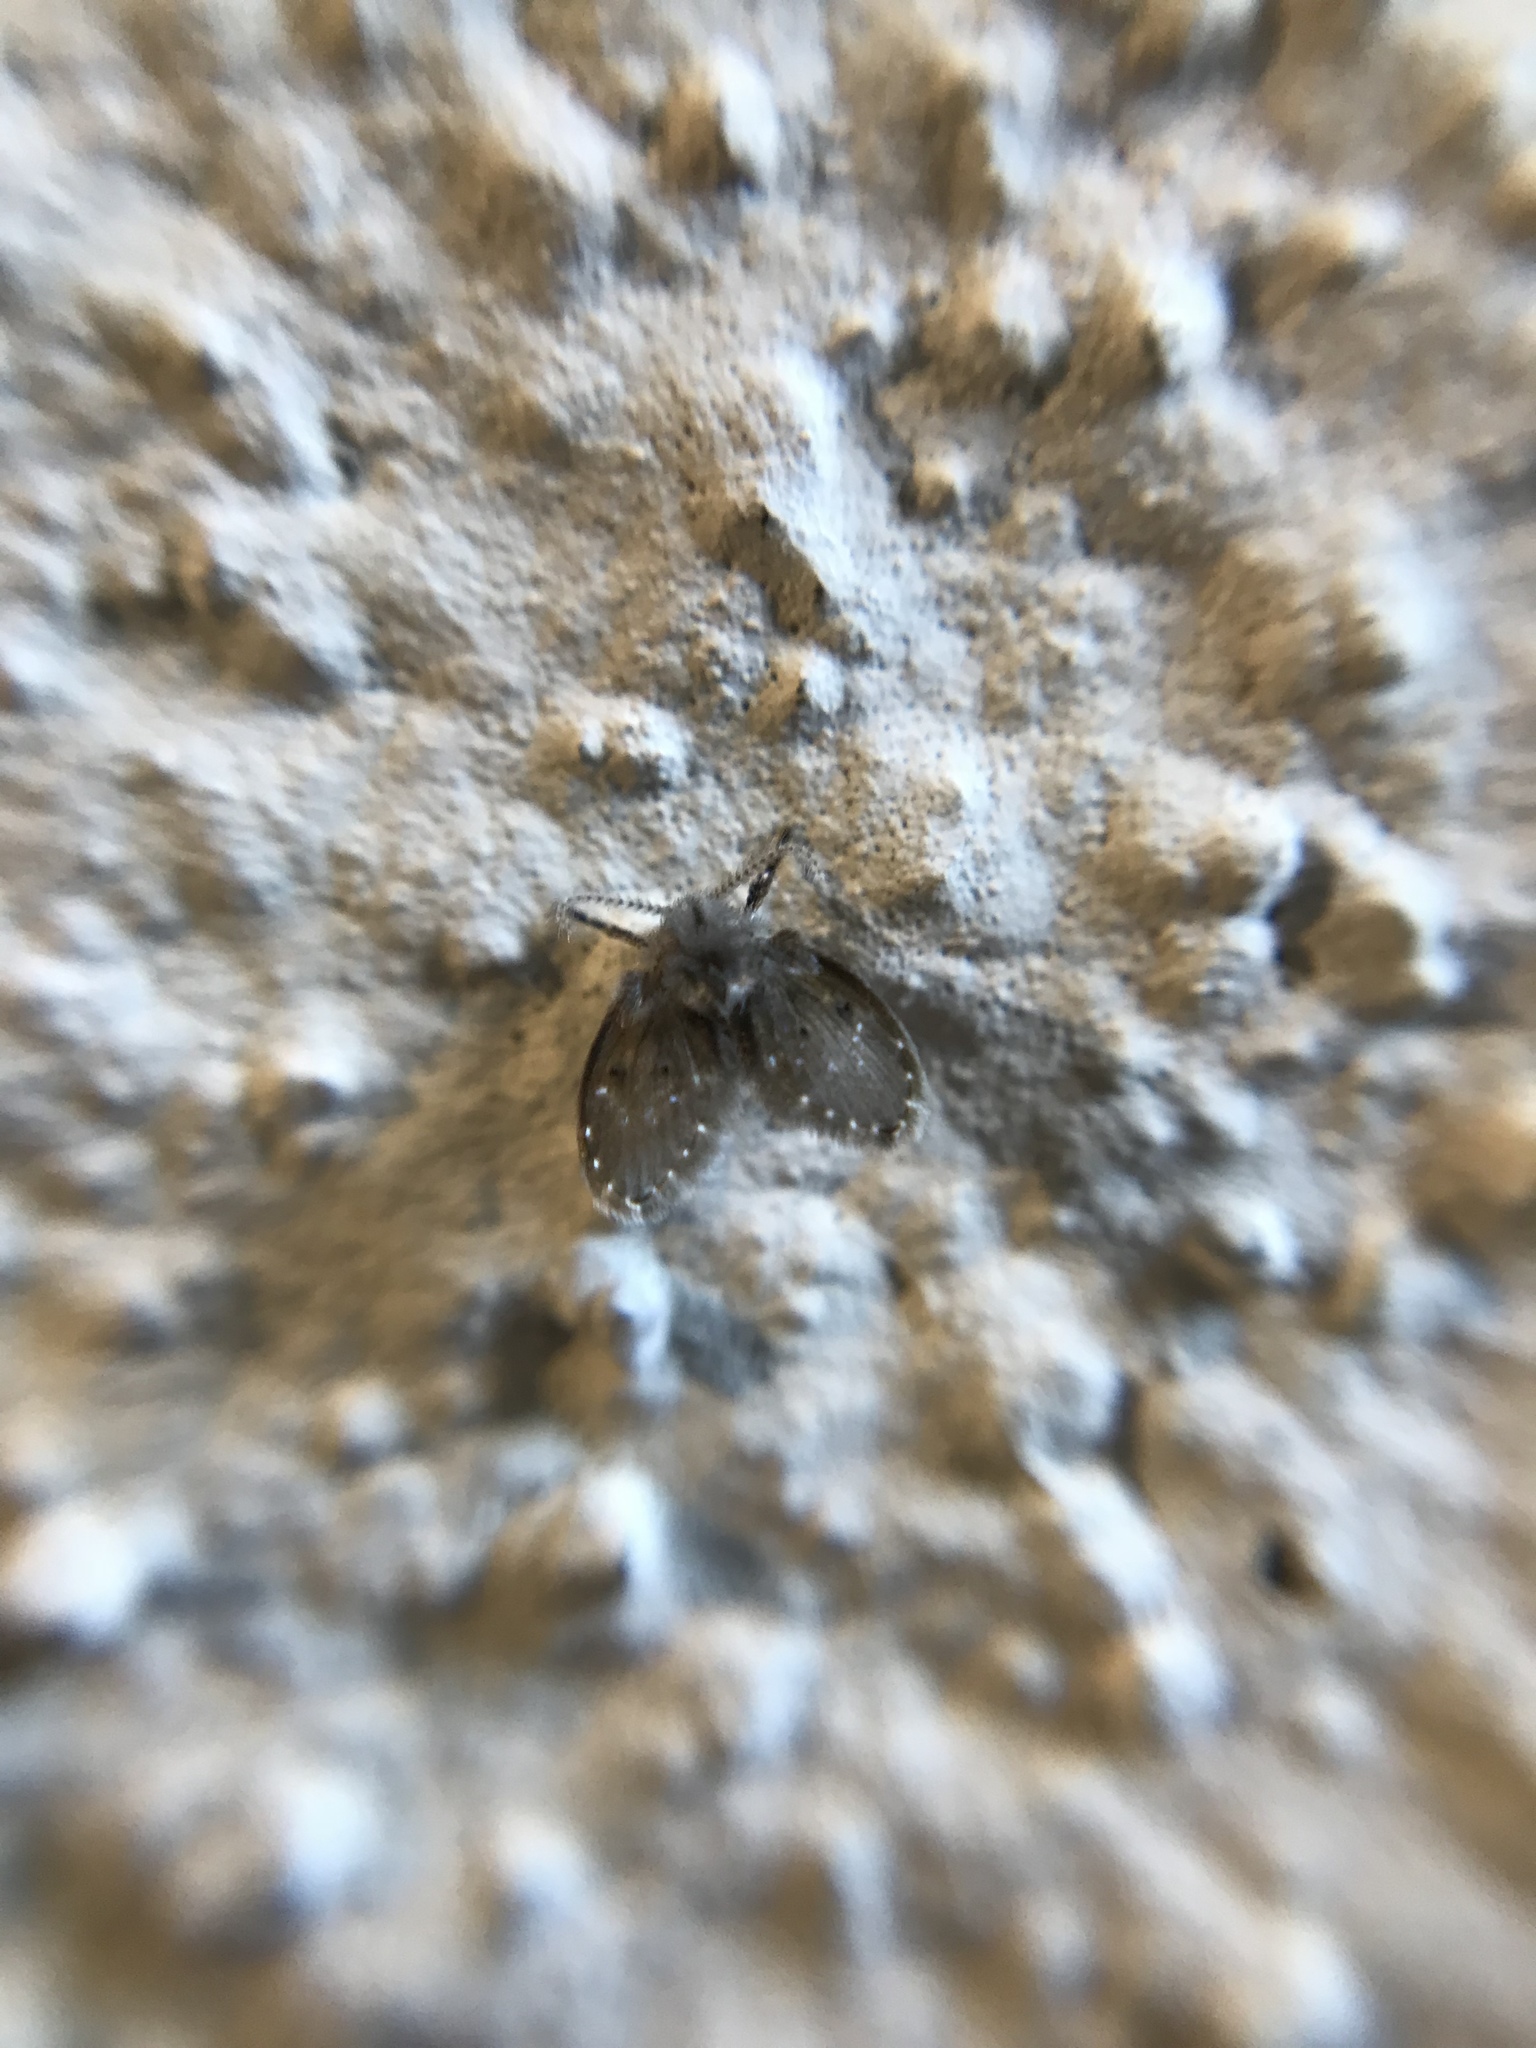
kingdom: Animalia
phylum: Arthropoda
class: Insecta
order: Diptera
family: Psychodidae
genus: Clogmia
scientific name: Clogmia albipunctatus
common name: White-spotted moth fly
